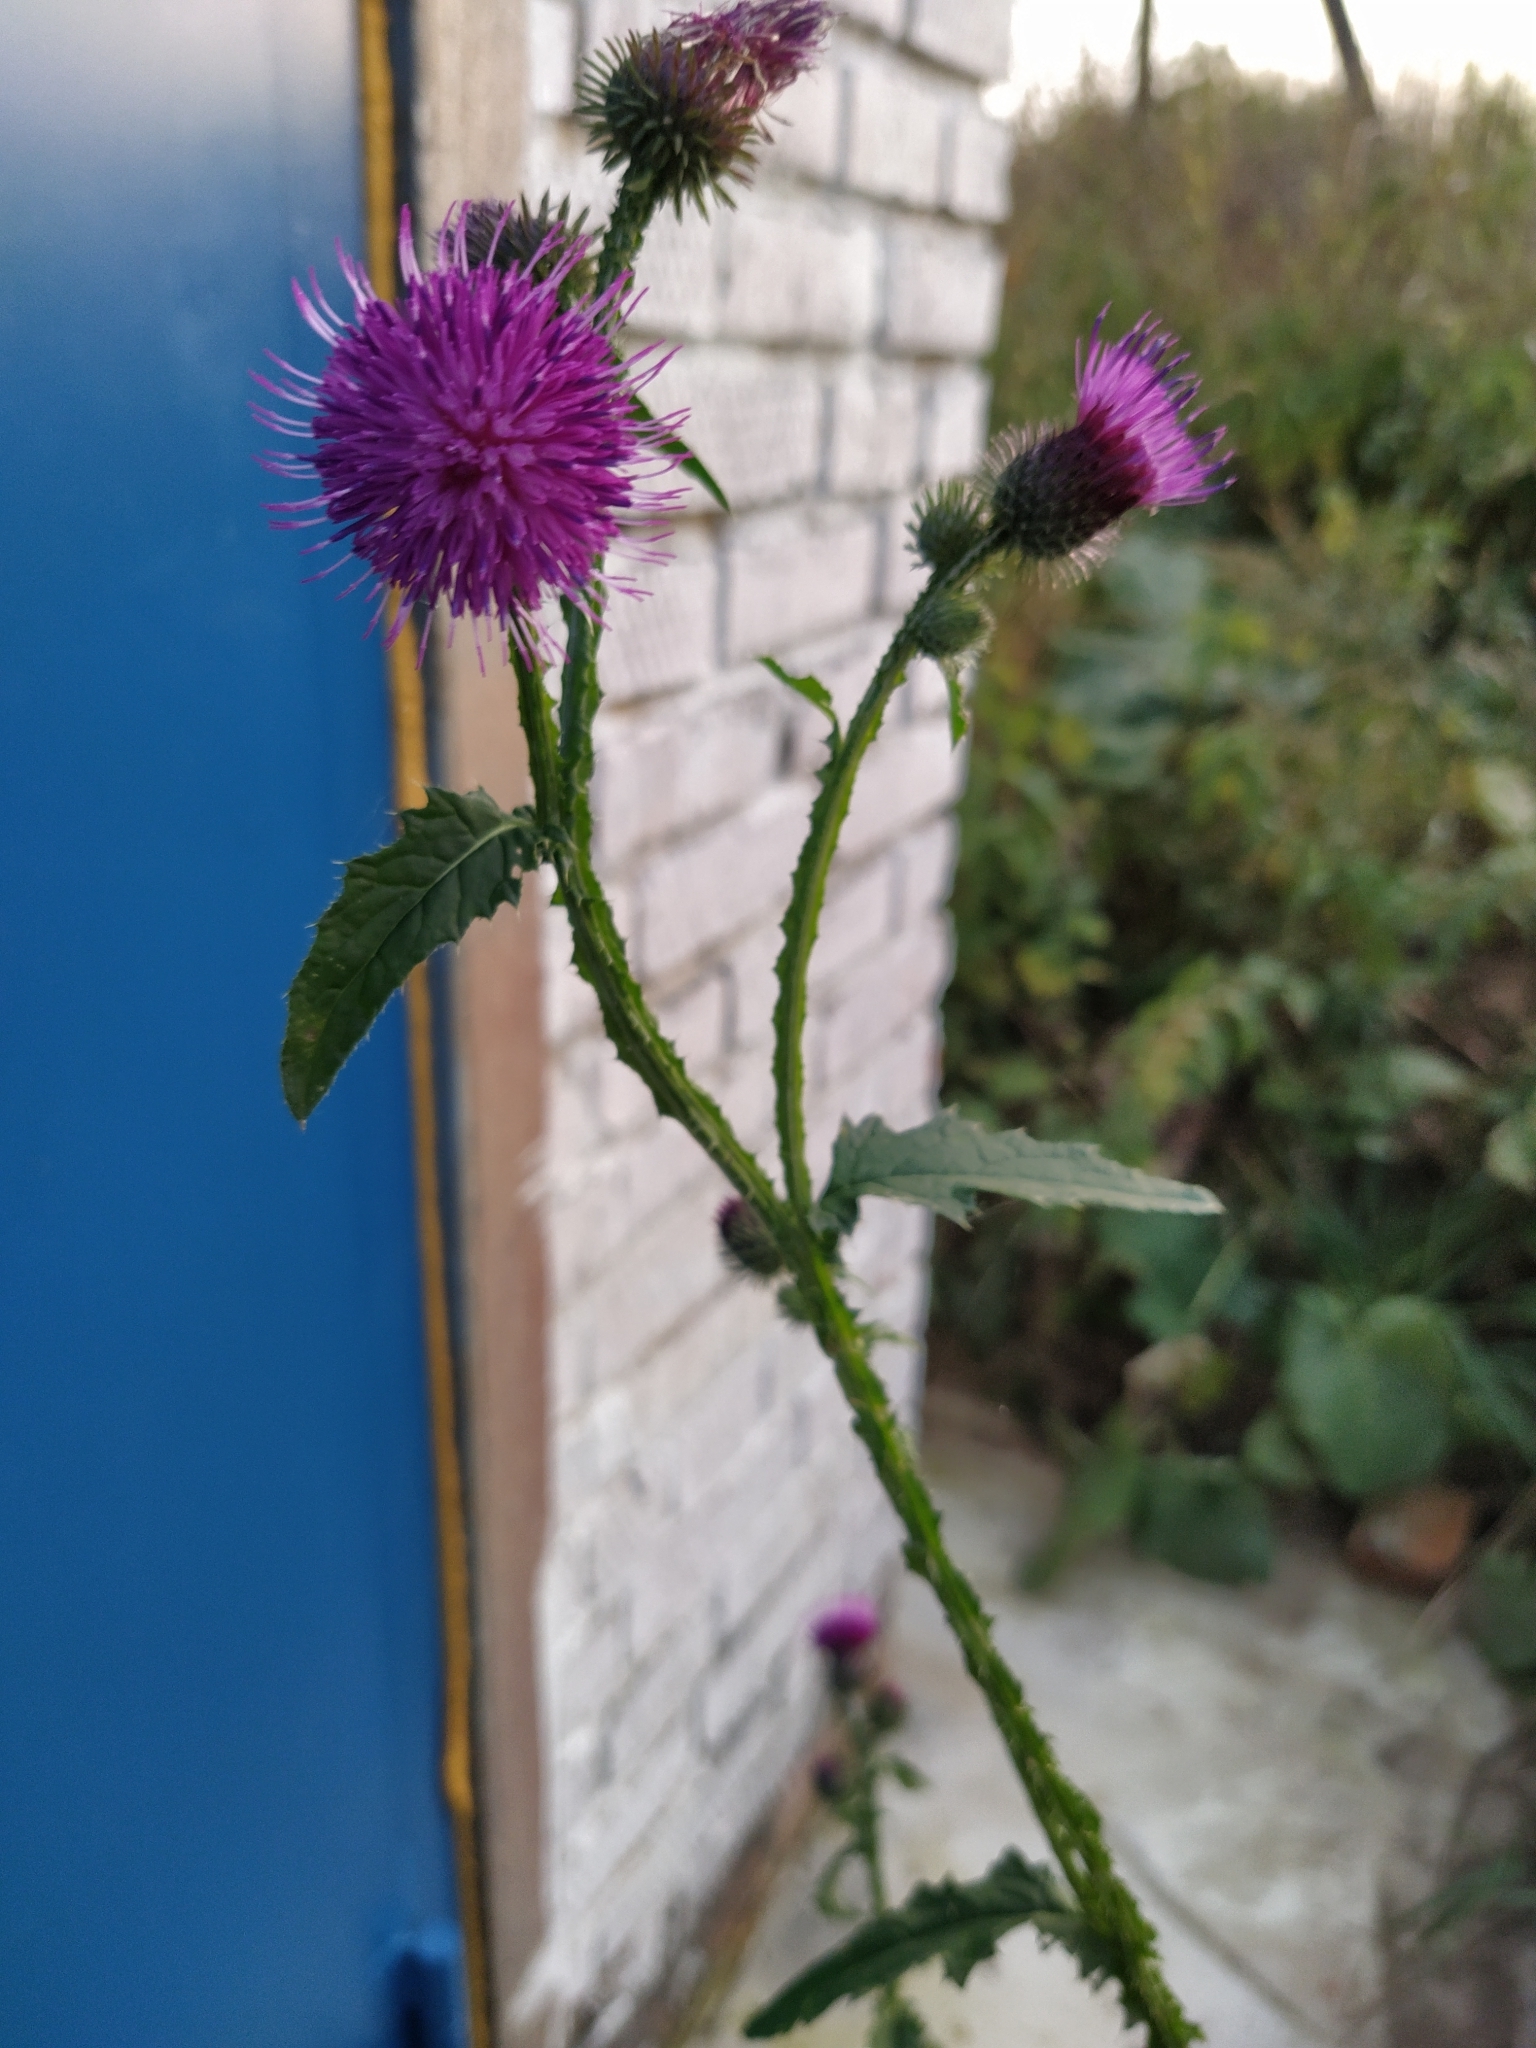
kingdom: Plantae
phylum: Tracheophyta
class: Magnoliopsida
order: Asterales
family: Asteraceae
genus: Carduus
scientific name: Carduus crispus
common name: Welted thistle
